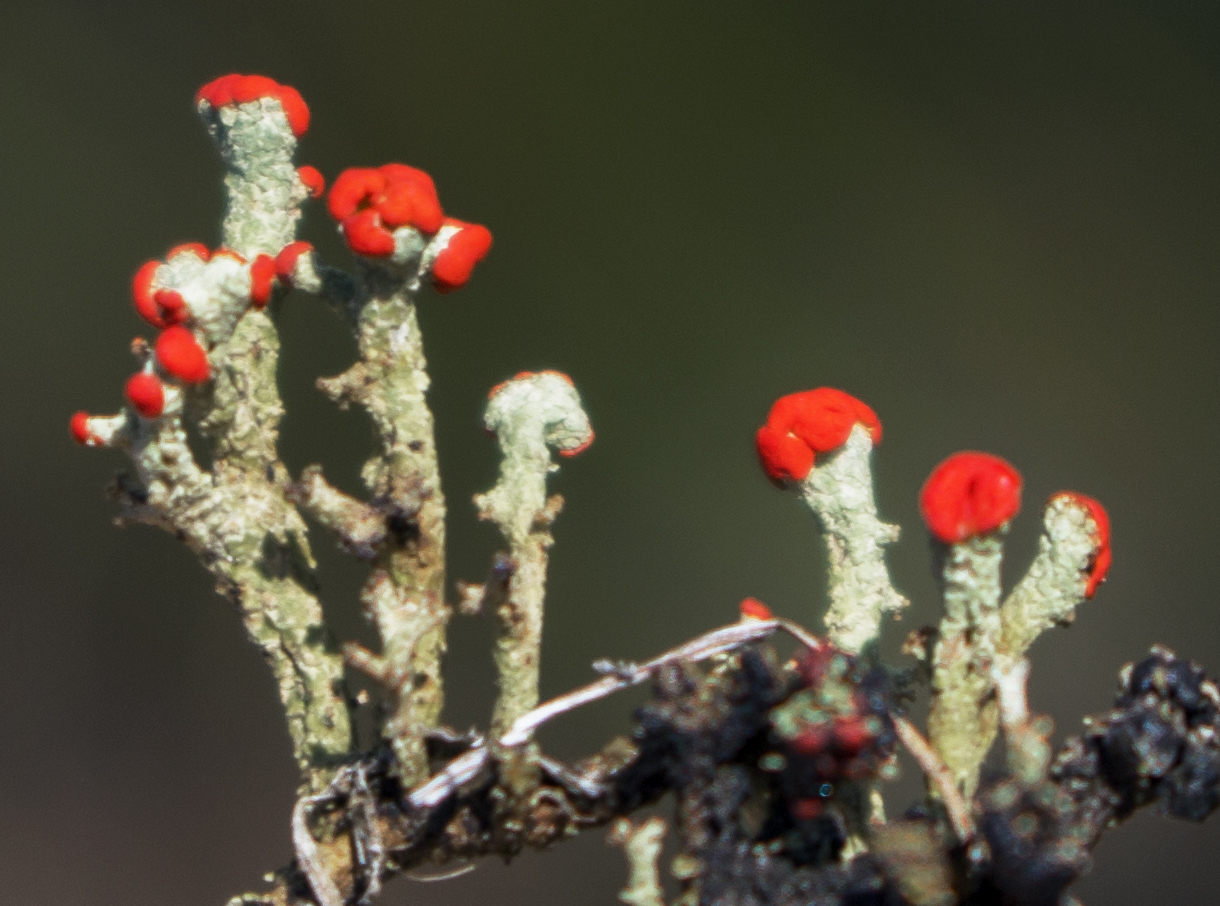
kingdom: Fungi
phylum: Ascomycota
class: Lecanoromycetes
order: Lecanorales
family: Cladoniaceae
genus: Cladonia
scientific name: Cladonia cristatella
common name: British soldier lichen
